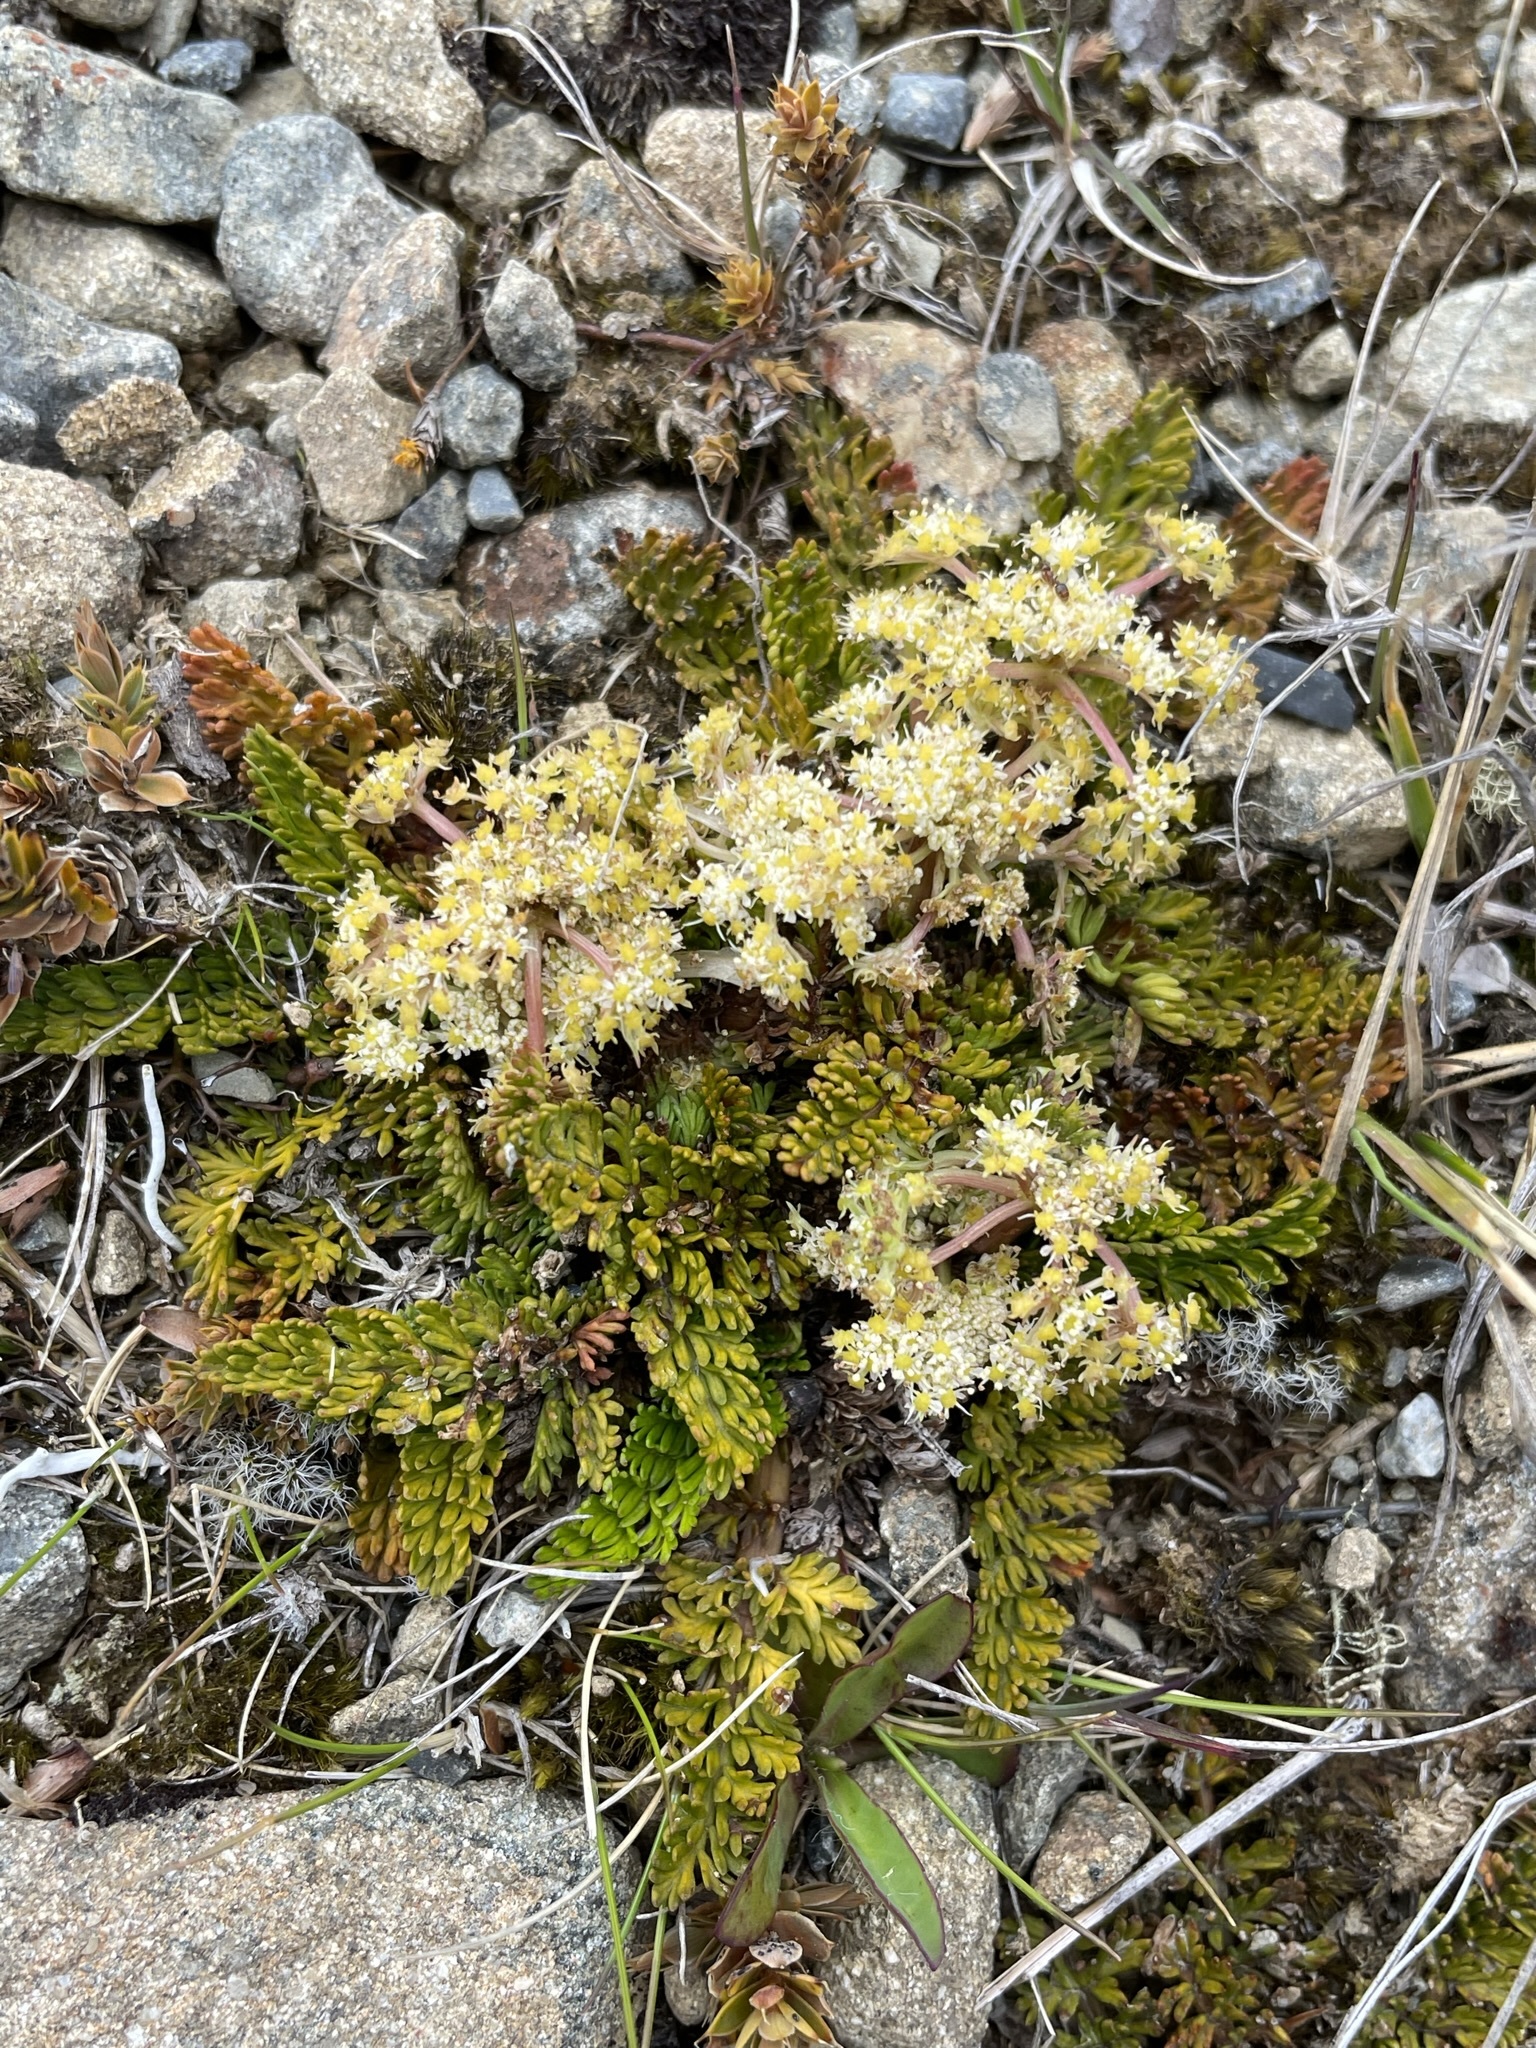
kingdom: Plantae
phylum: Tracheophyta
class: Magnoliopsida
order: Apiales
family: Apiaceae
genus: Anisotome
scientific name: Anisotome flexuosa
